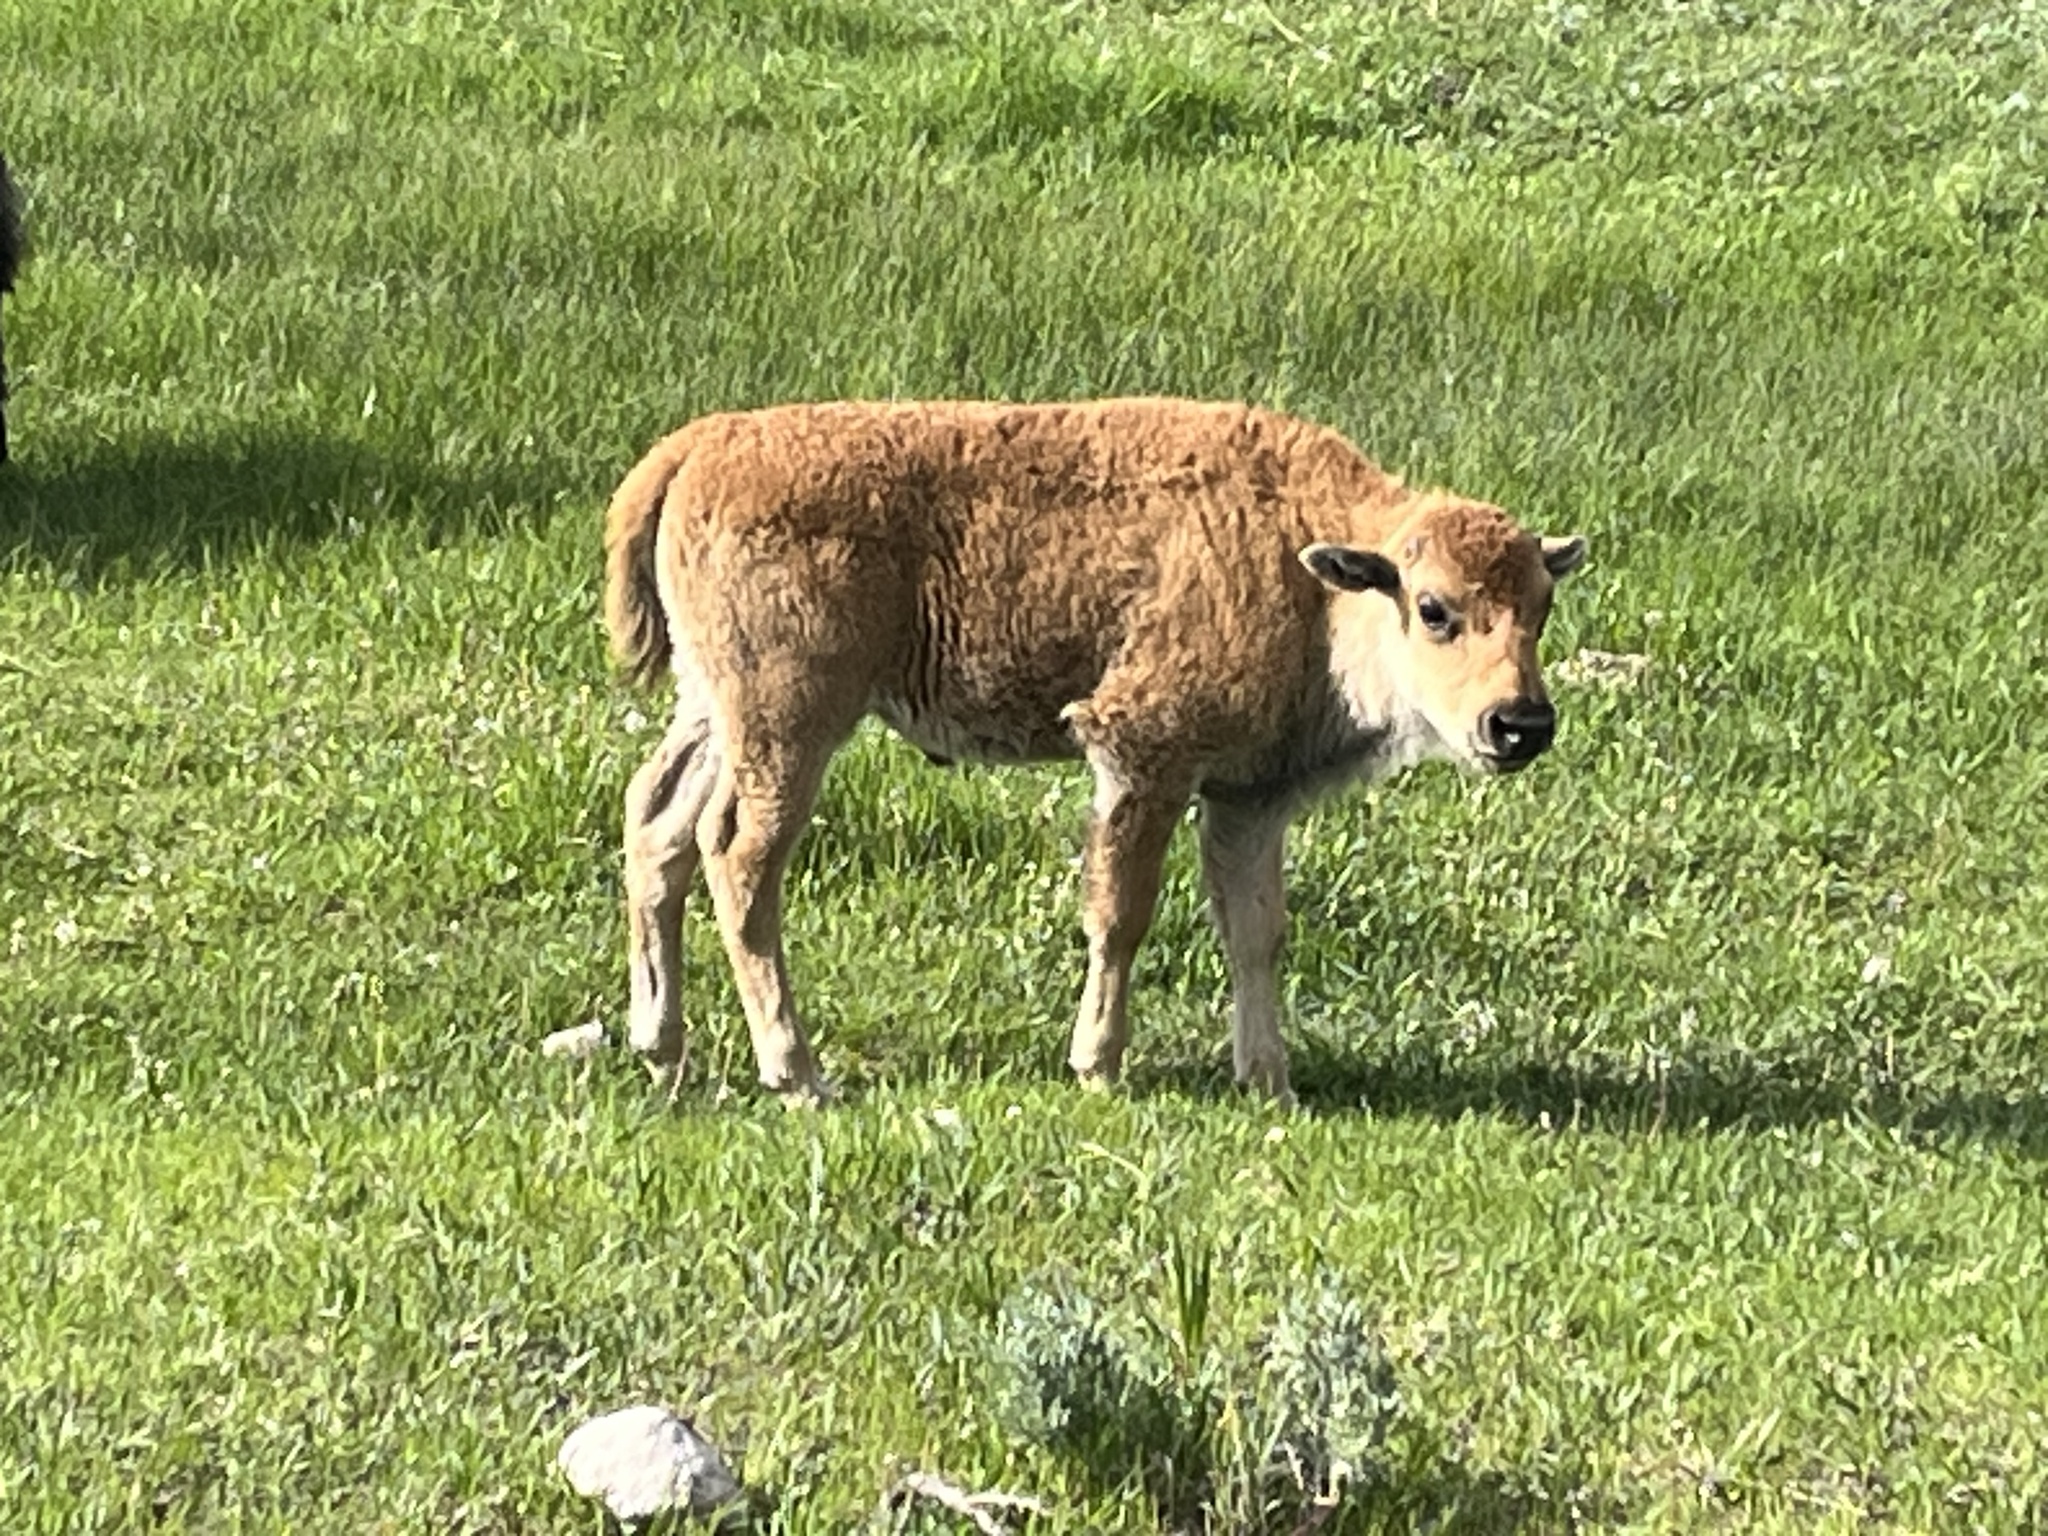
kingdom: Animalia
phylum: Chordata
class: Mammalia
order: Artiodactyla
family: Bovidae
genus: Bison
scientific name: Bison bison
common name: American bison
